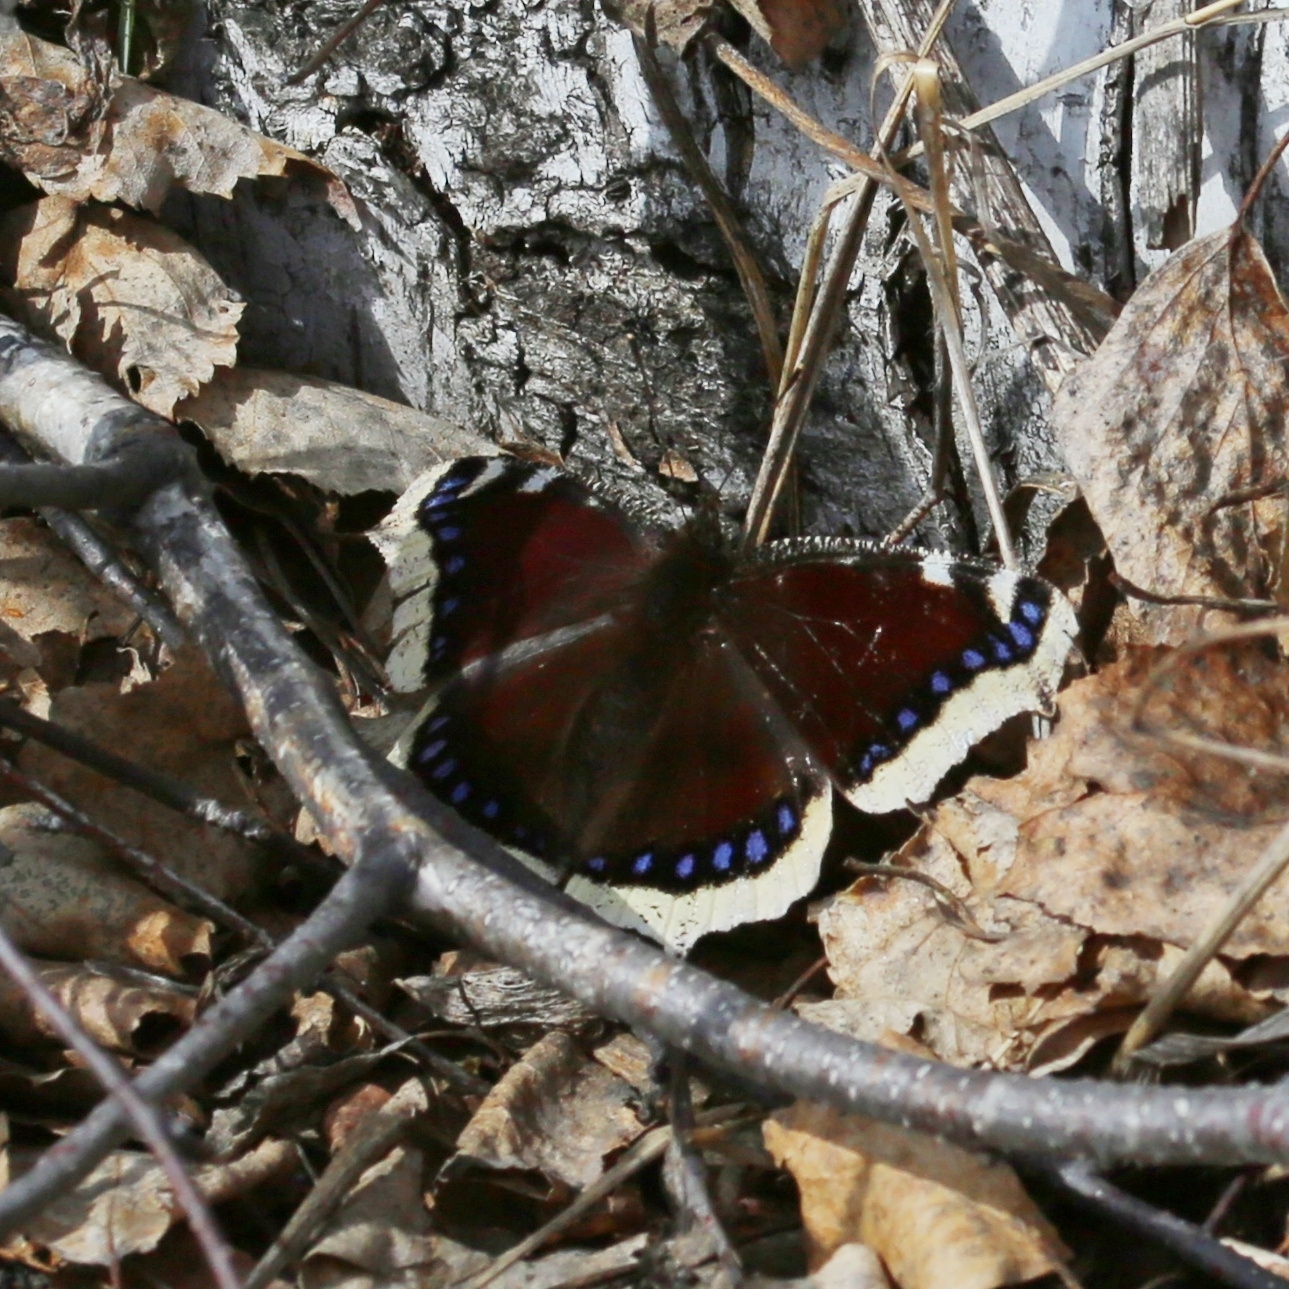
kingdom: Animalia
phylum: Arthropoda
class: Insecta
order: Lepidoptera
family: Nymphalidae
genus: Nymphalis
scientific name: Nymphalis antiopa
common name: Camberwell beauty
